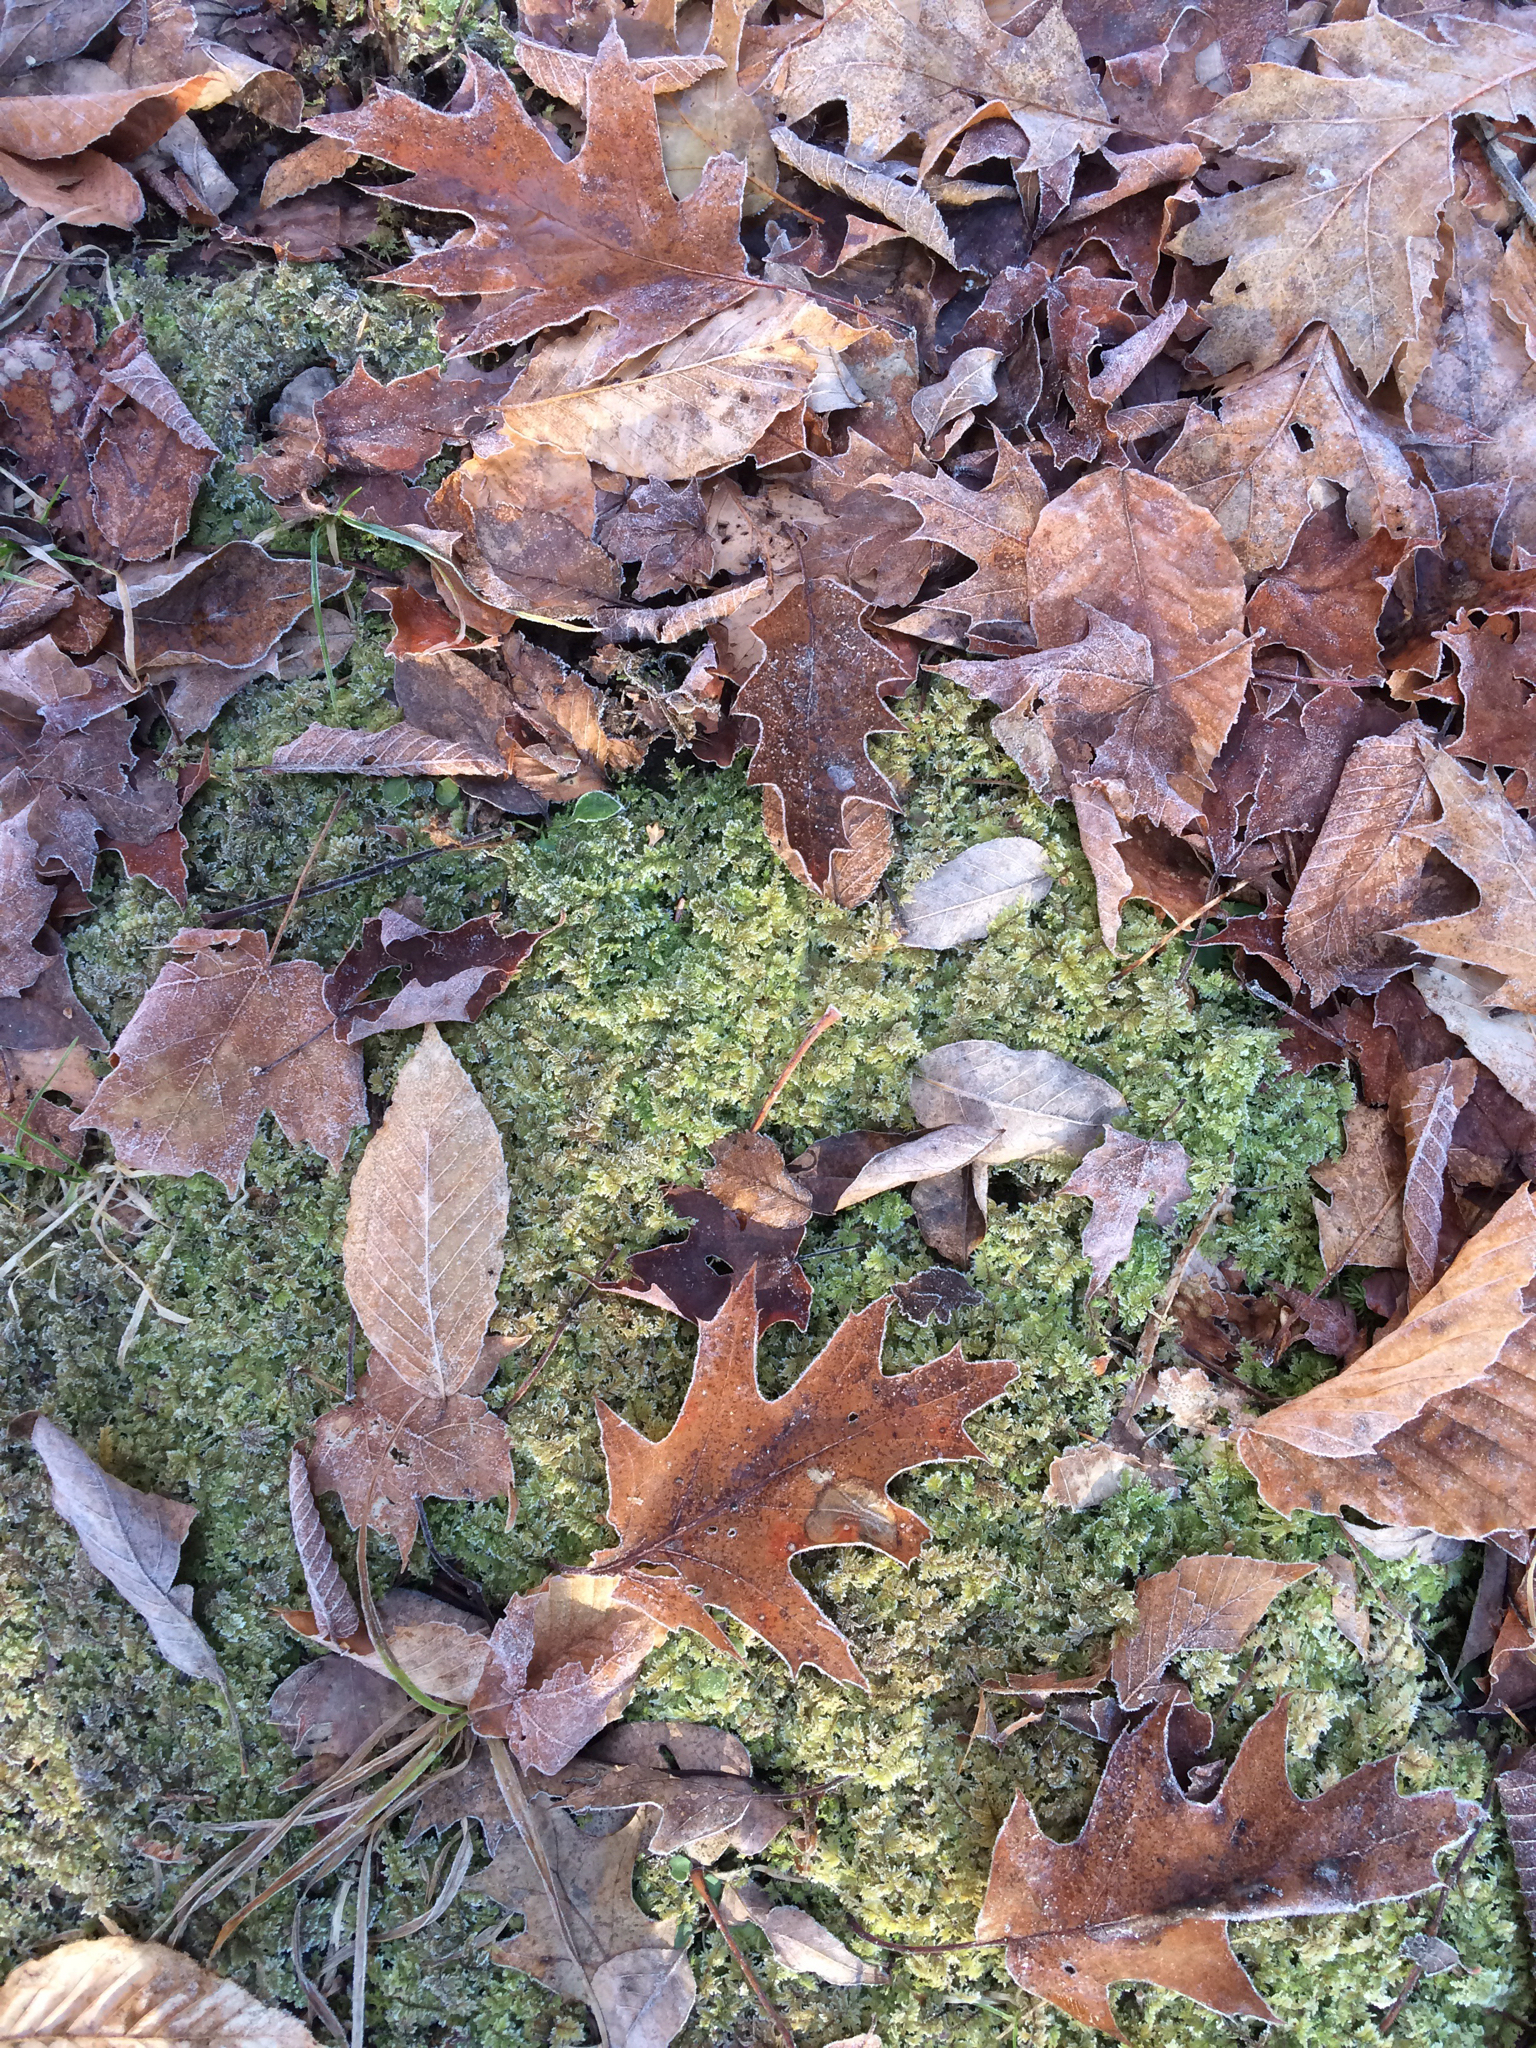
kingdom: Plantae
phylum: Tracheophyta
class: Magnoliopsida
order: Fagales
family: Fagaceae
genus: Quercus
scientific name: Quercus rubra
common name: Red oak
